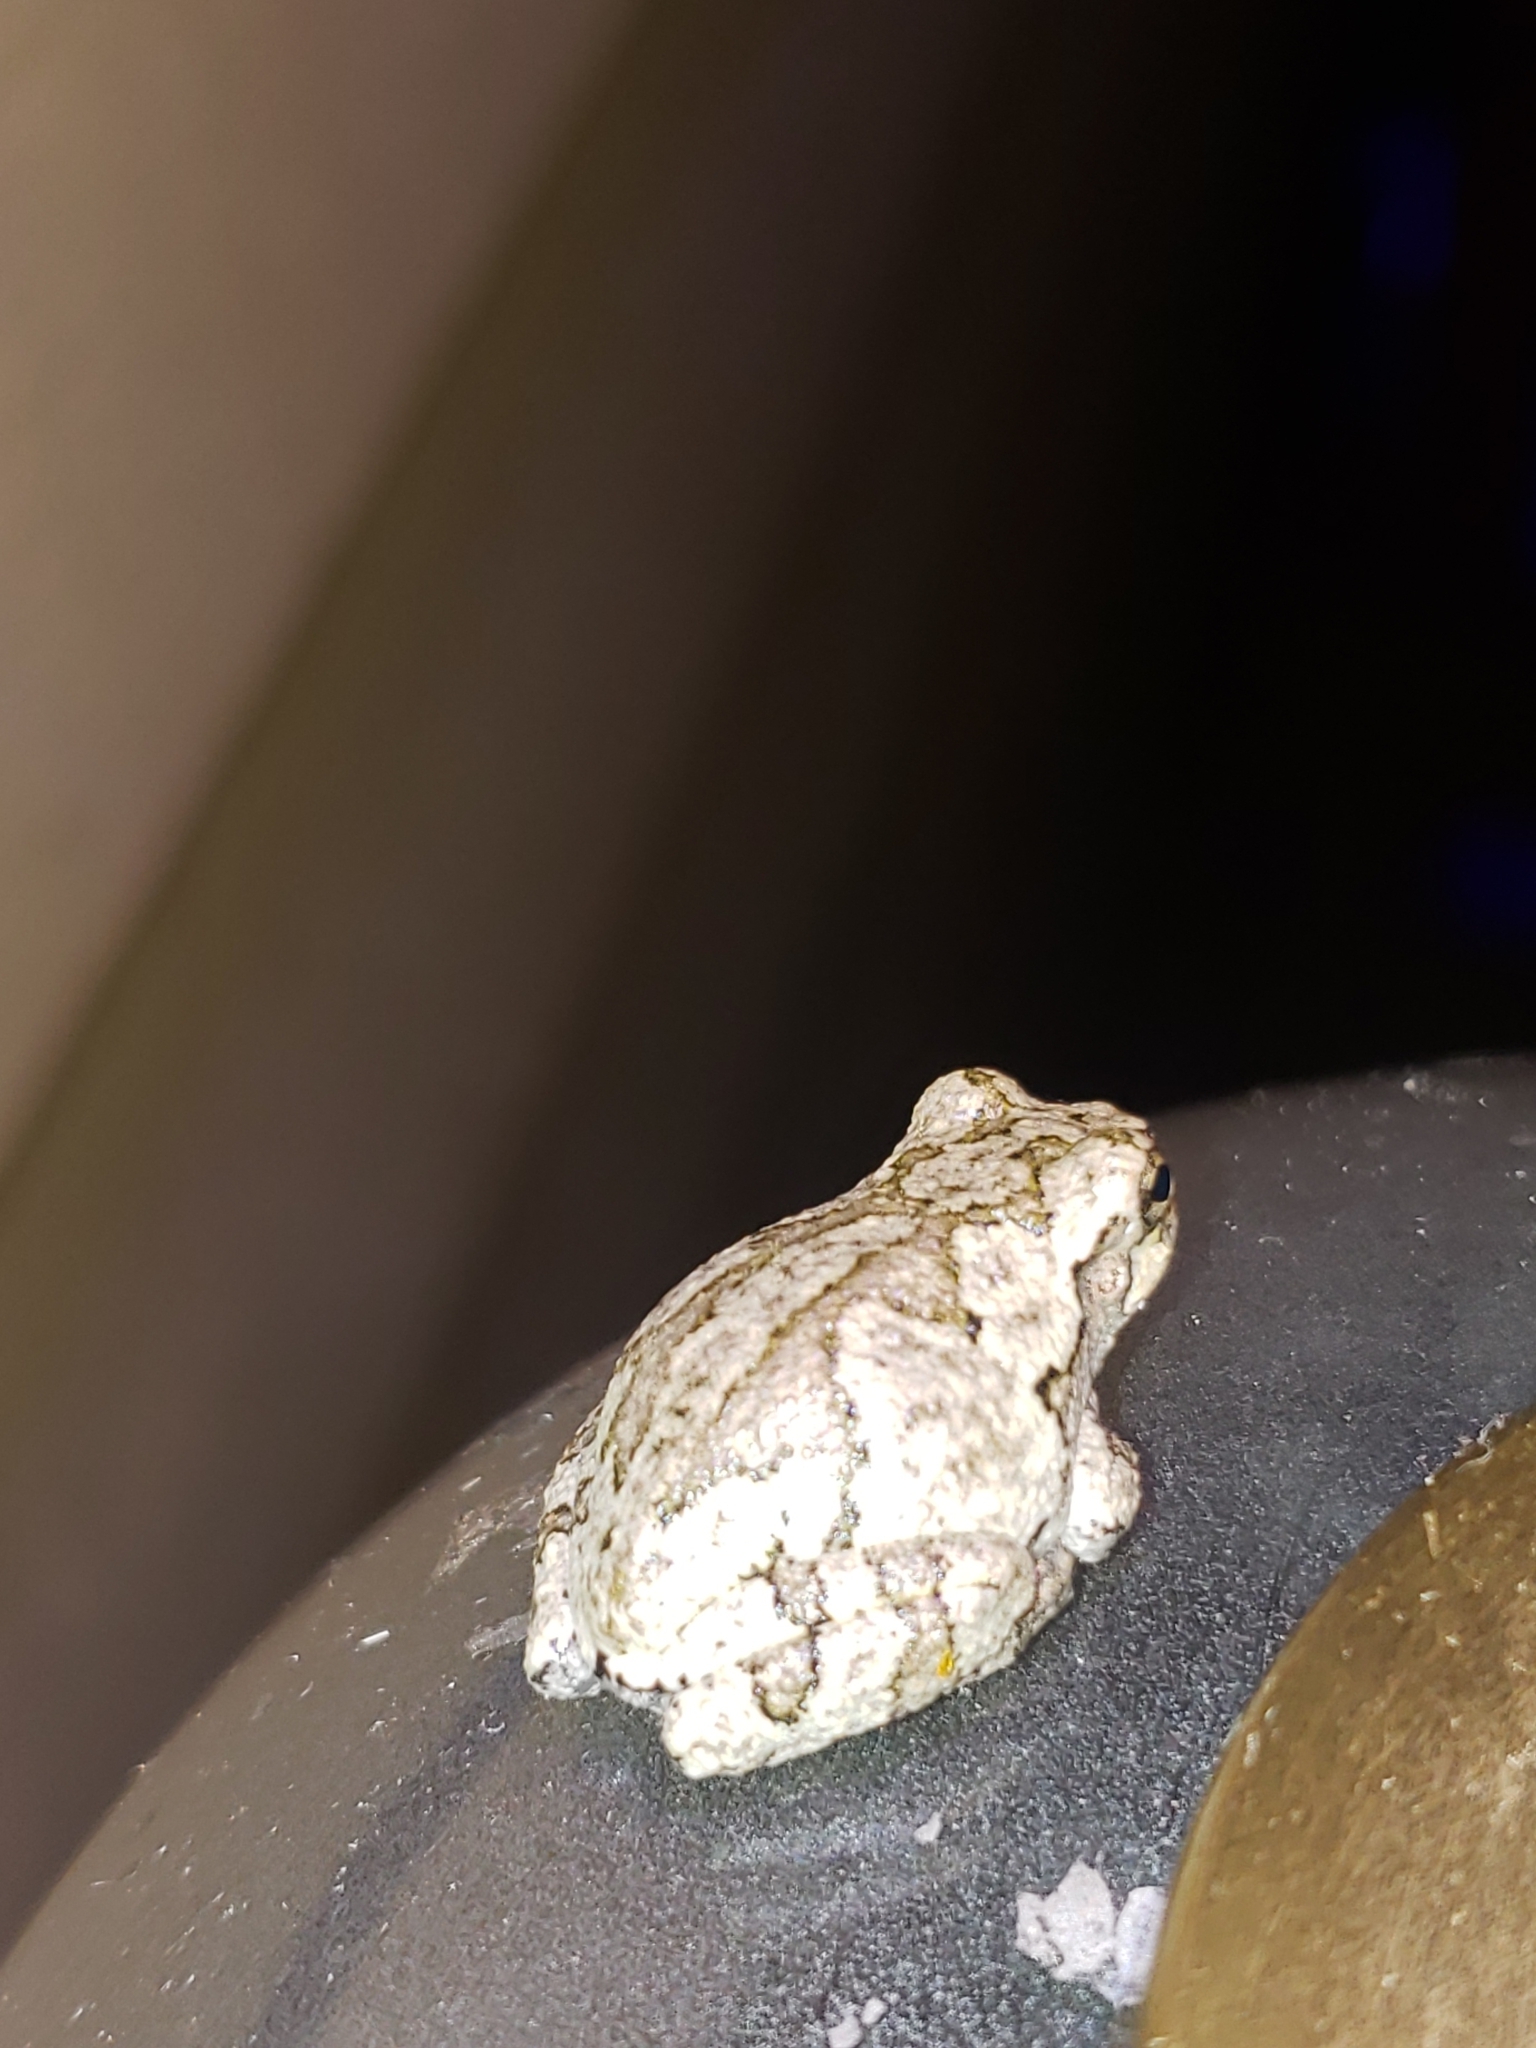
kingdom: Animalia
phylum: Chordata
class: Amphibia
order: Anura
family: Hylidae
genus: Hyla
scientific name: Hyla
